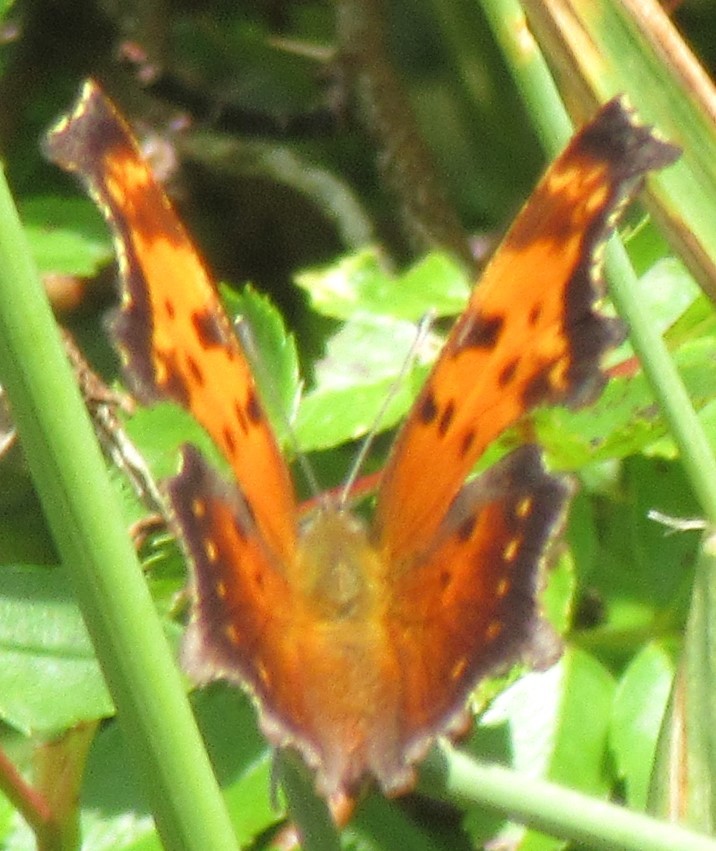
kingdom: Animalia
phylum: Arthropoda
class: Insecta
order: Lepidoptera
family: Nymphalidae
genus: Polygonia
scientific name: Polygonia progne
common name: Gray comma
